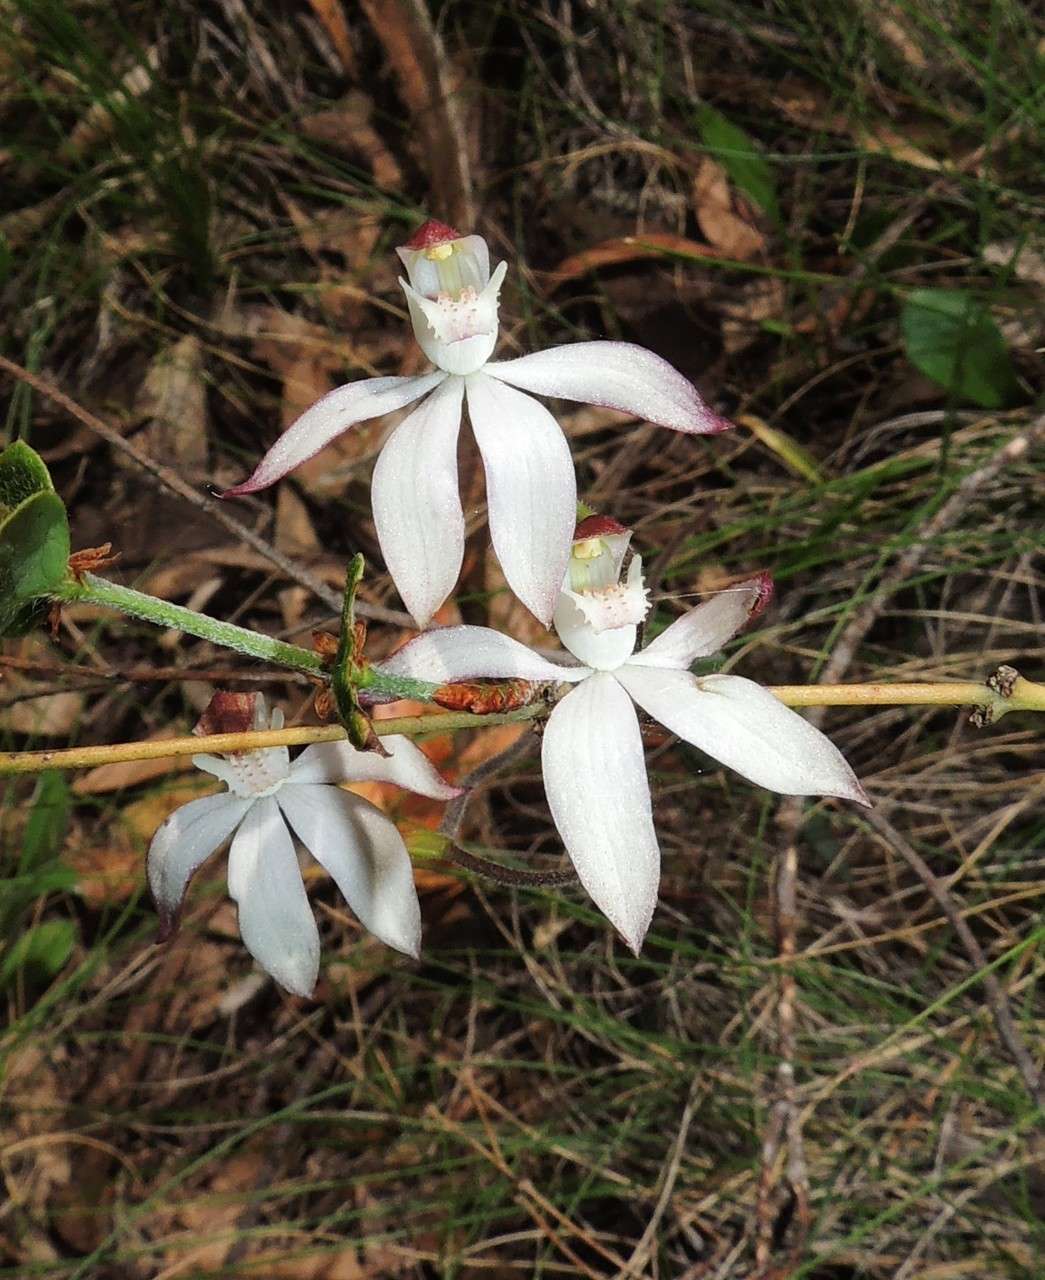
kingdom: Plantae
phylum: Tracheophyta
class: Liliopsida
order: Asparagales
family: Orchidaceae
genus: Caladenia
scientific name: Caladenia moschata
